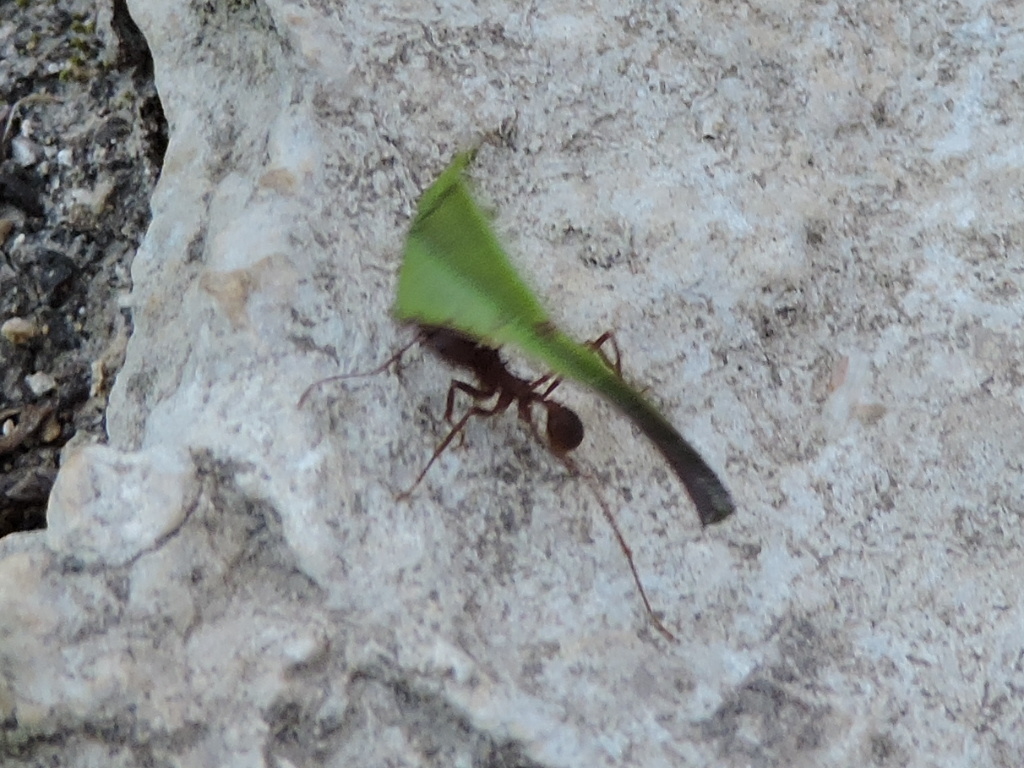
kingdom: Animalia
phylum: Arthropoda
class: Insecta
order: Hymenoptera
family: Formicidae
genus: Atta
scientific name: Atta texana
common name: Texas leafcutting ant
